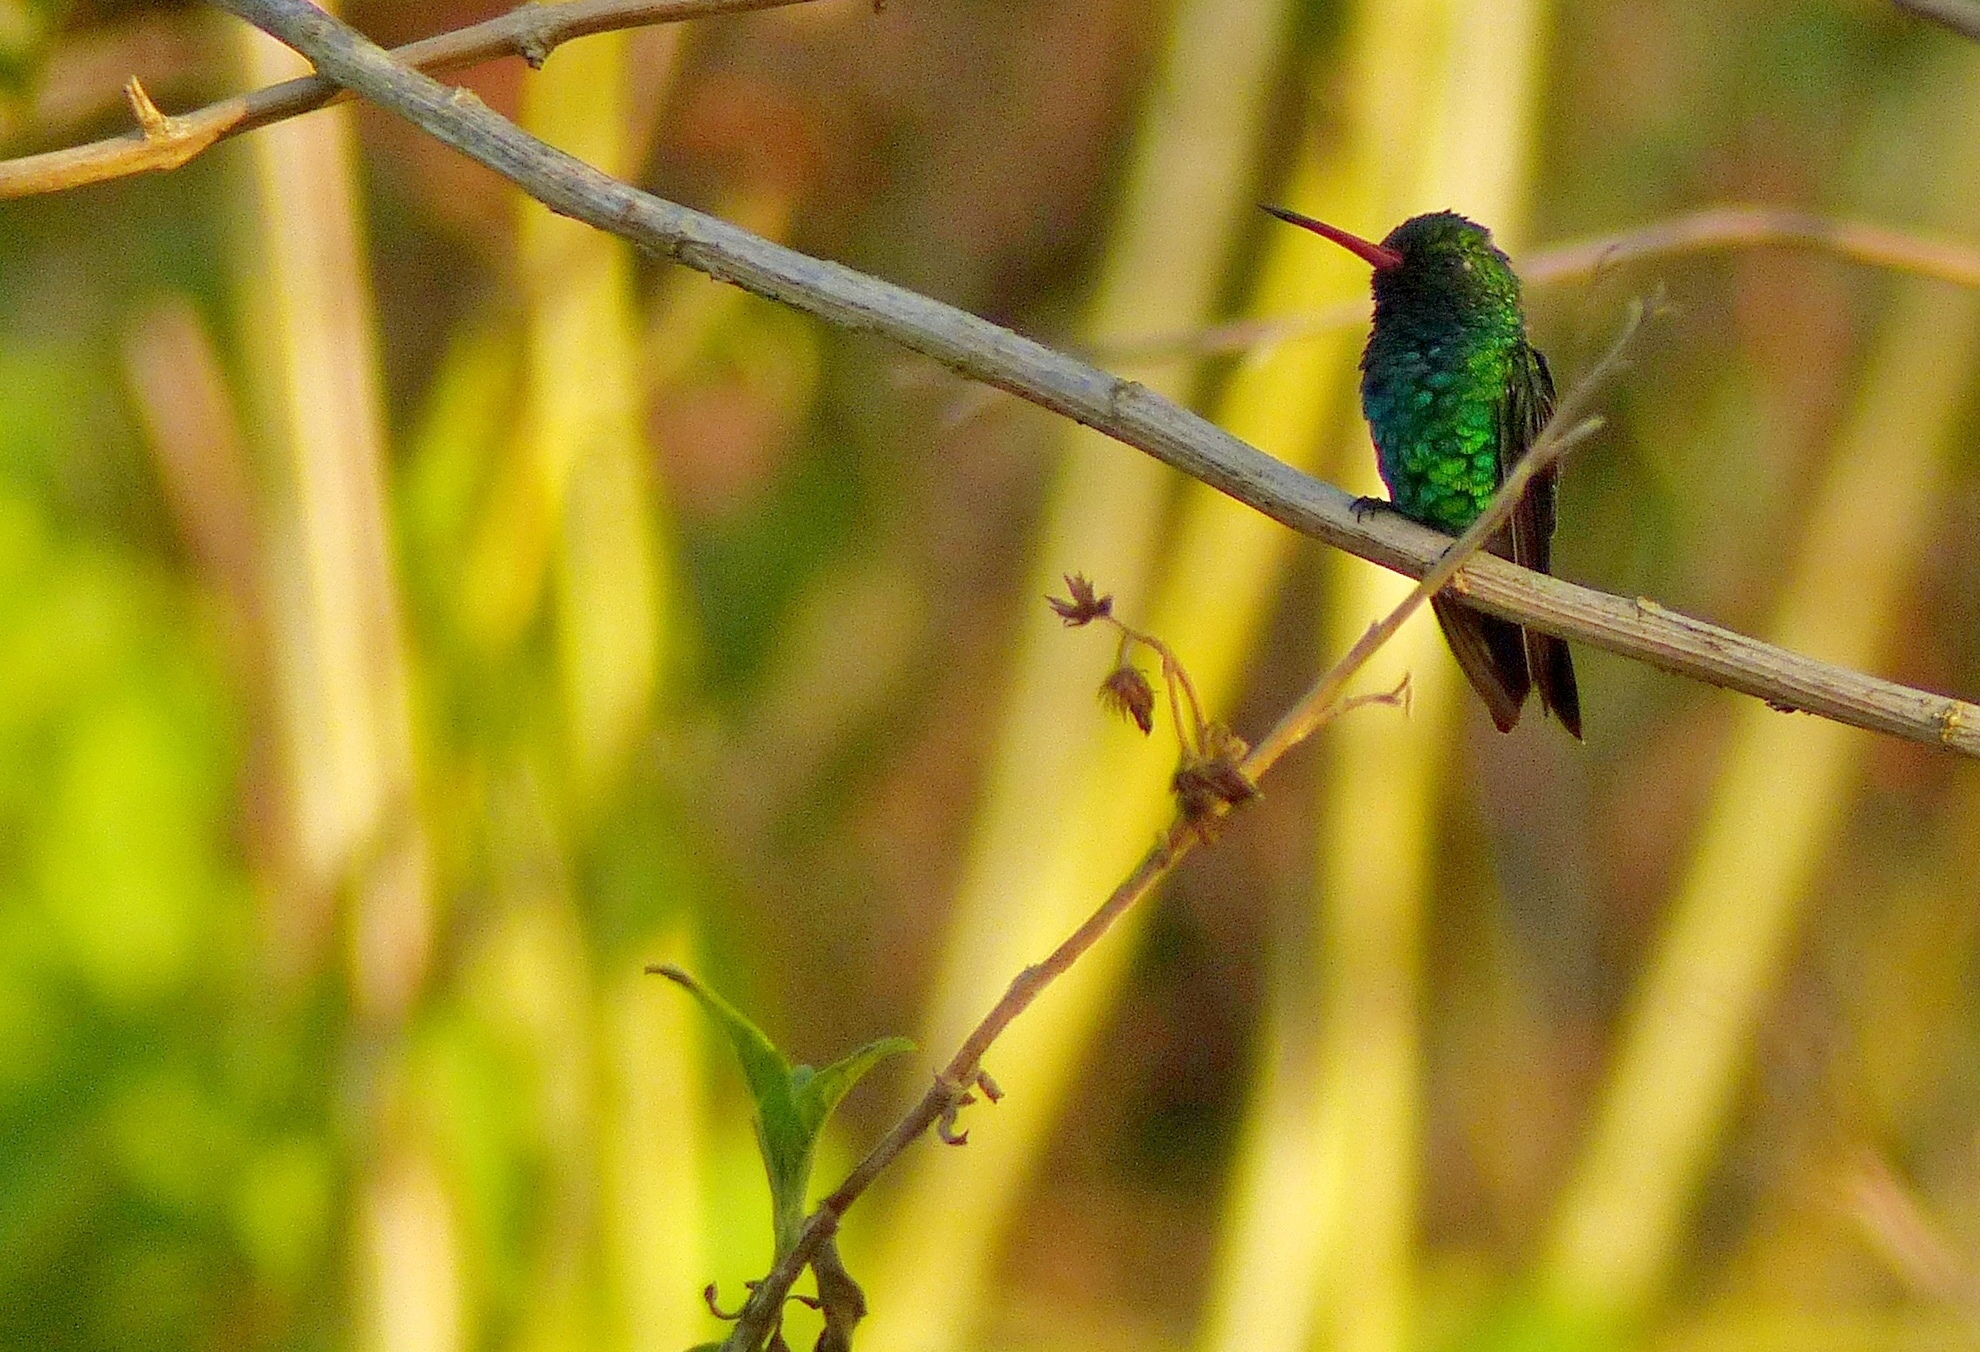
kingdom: Animalia
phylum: Chordata
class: Aves
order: Apodiformes
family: Trochilidae
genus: Chlorostilbon
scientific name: Chlorostilbon lucidus
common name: Glittering-bellied emerald
